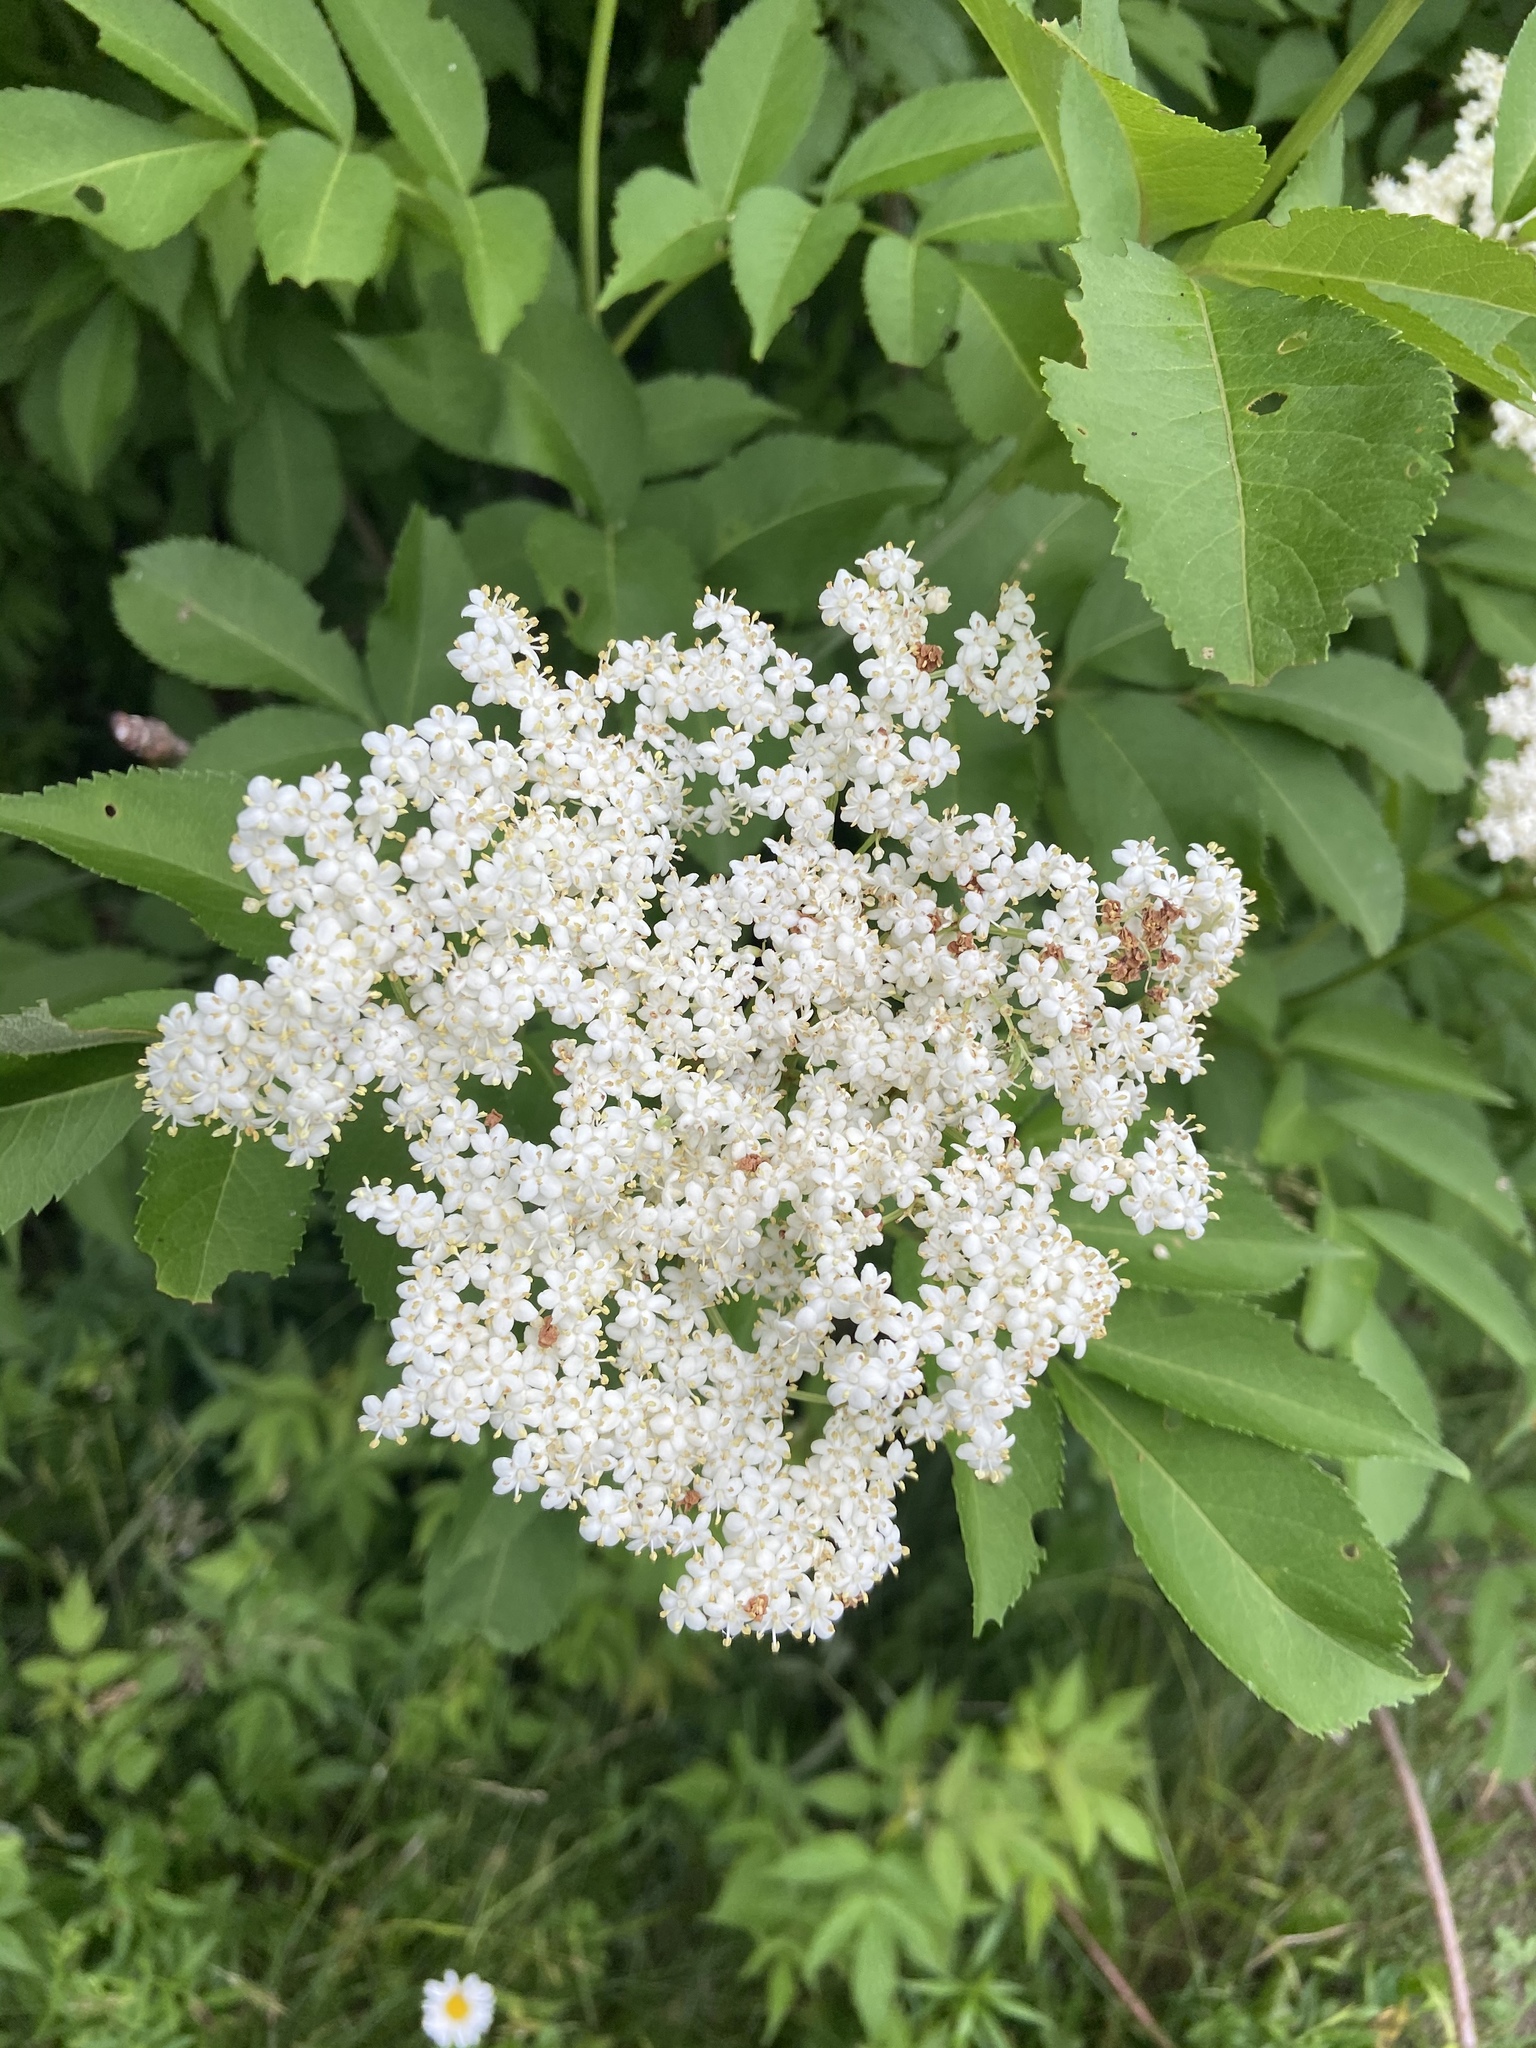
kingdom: Plantae
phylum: Tracheophyta
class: Magnoliopsida
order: Dipsacales
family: Viburnaceae
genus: Sambucus
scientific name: Sambucus canadensis
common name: American elder
